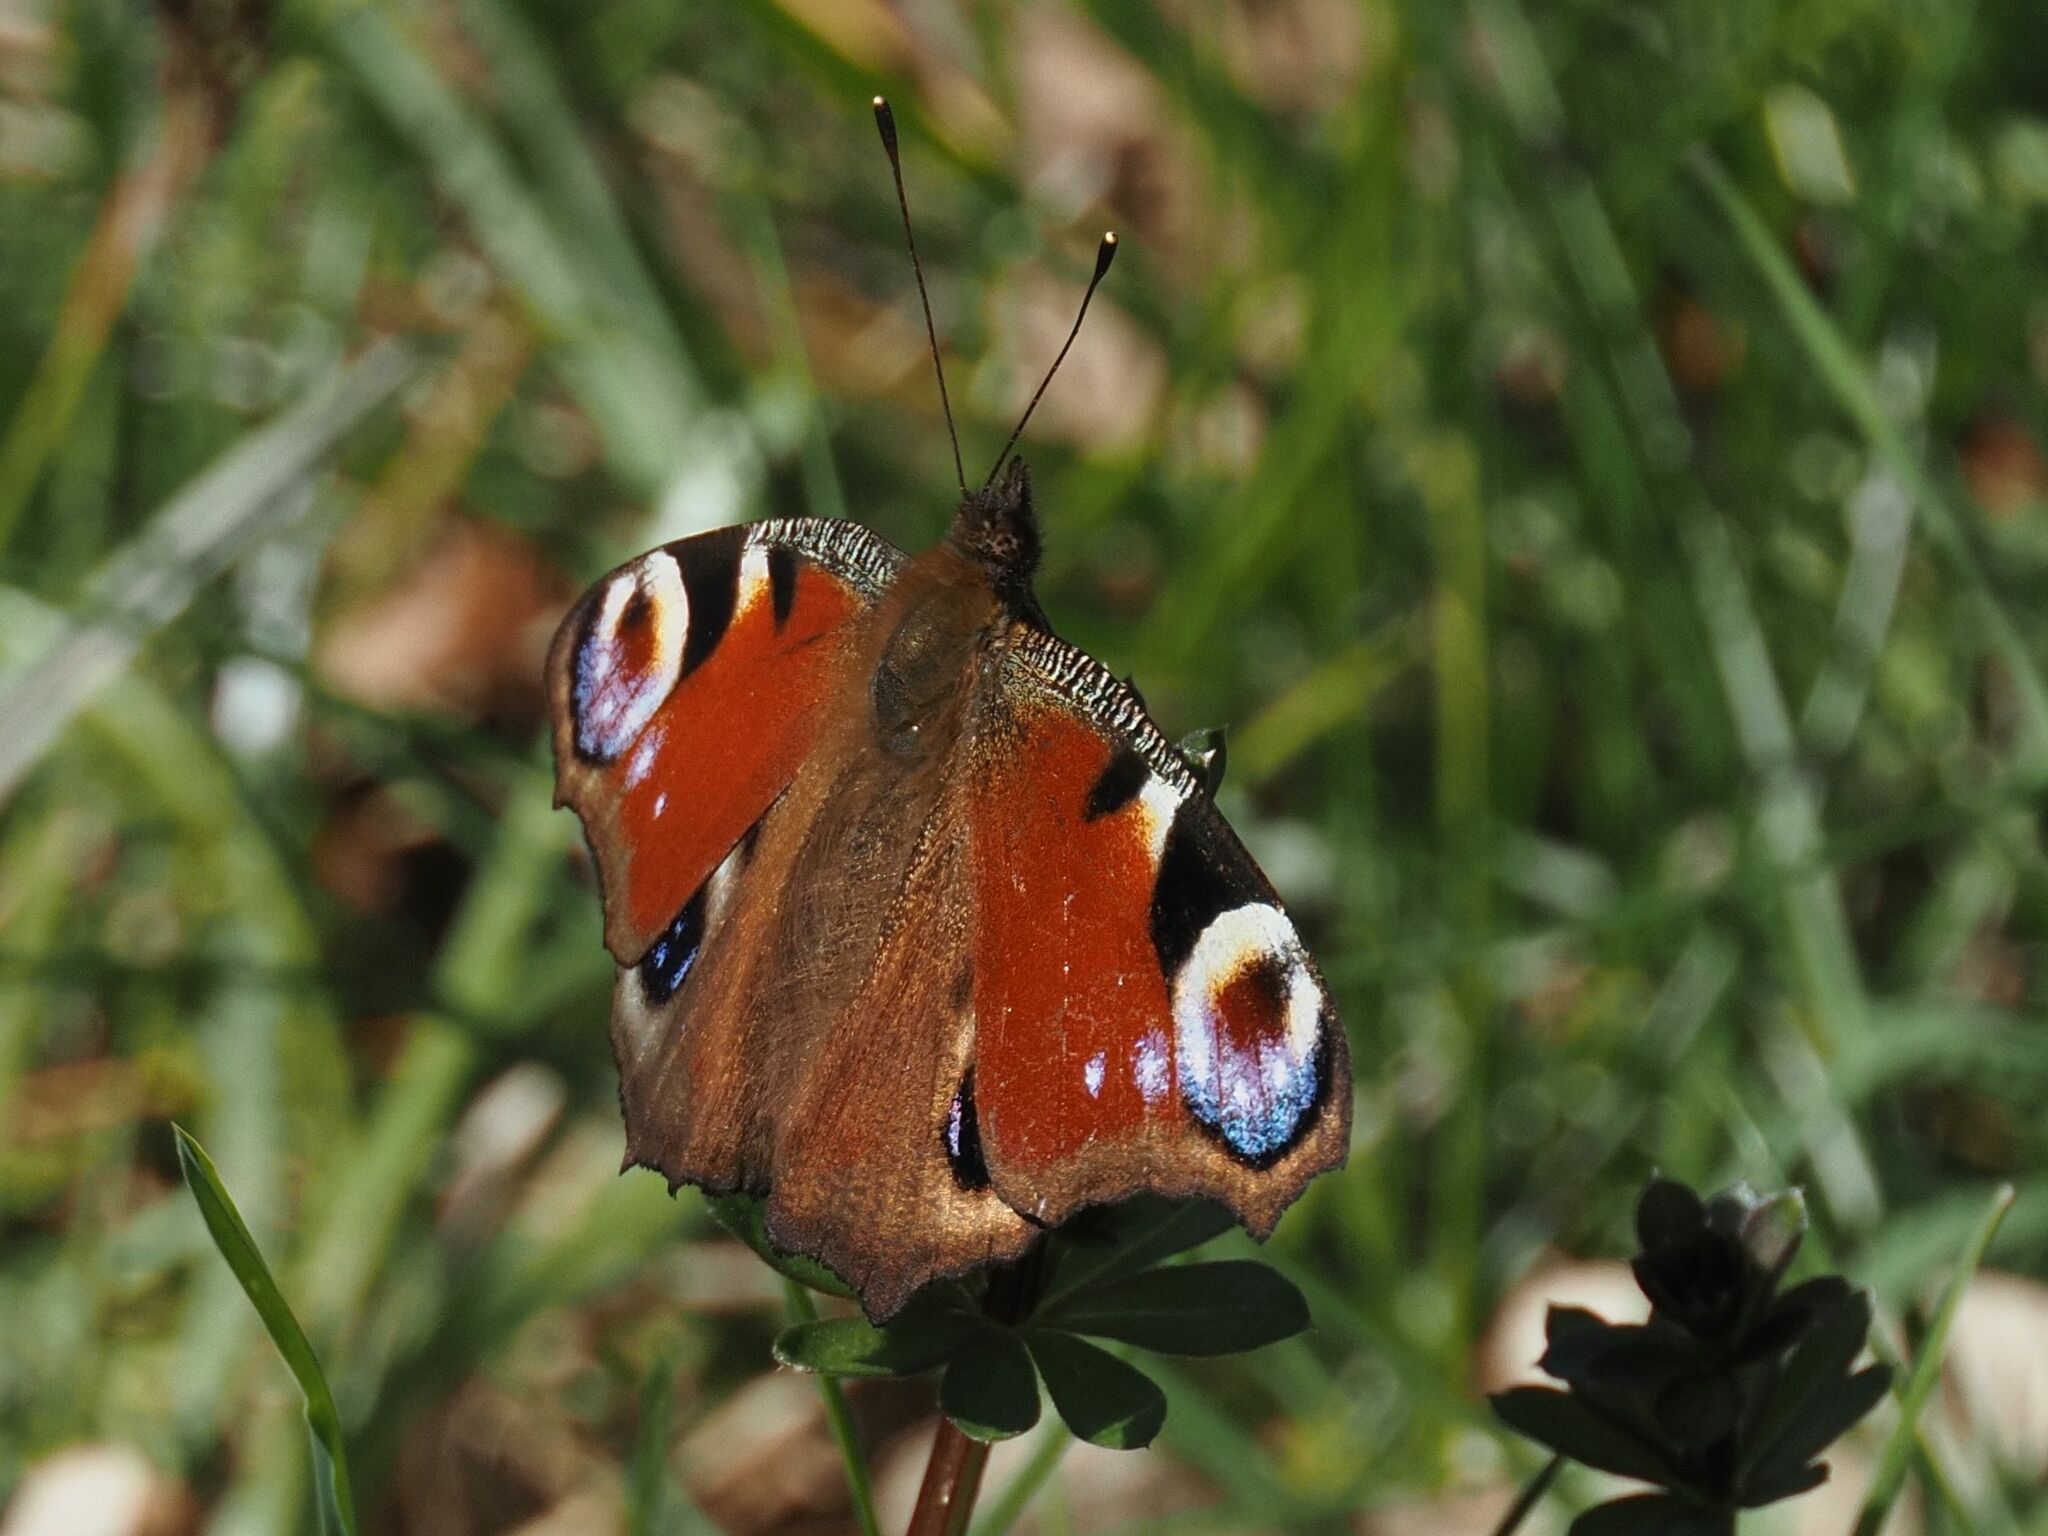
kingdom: Animalia
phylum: Arthropoda
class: Insecta
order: Lepidoptera
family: Nymphalidae
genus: Aglais
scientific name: Aglais io
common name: Peacock
